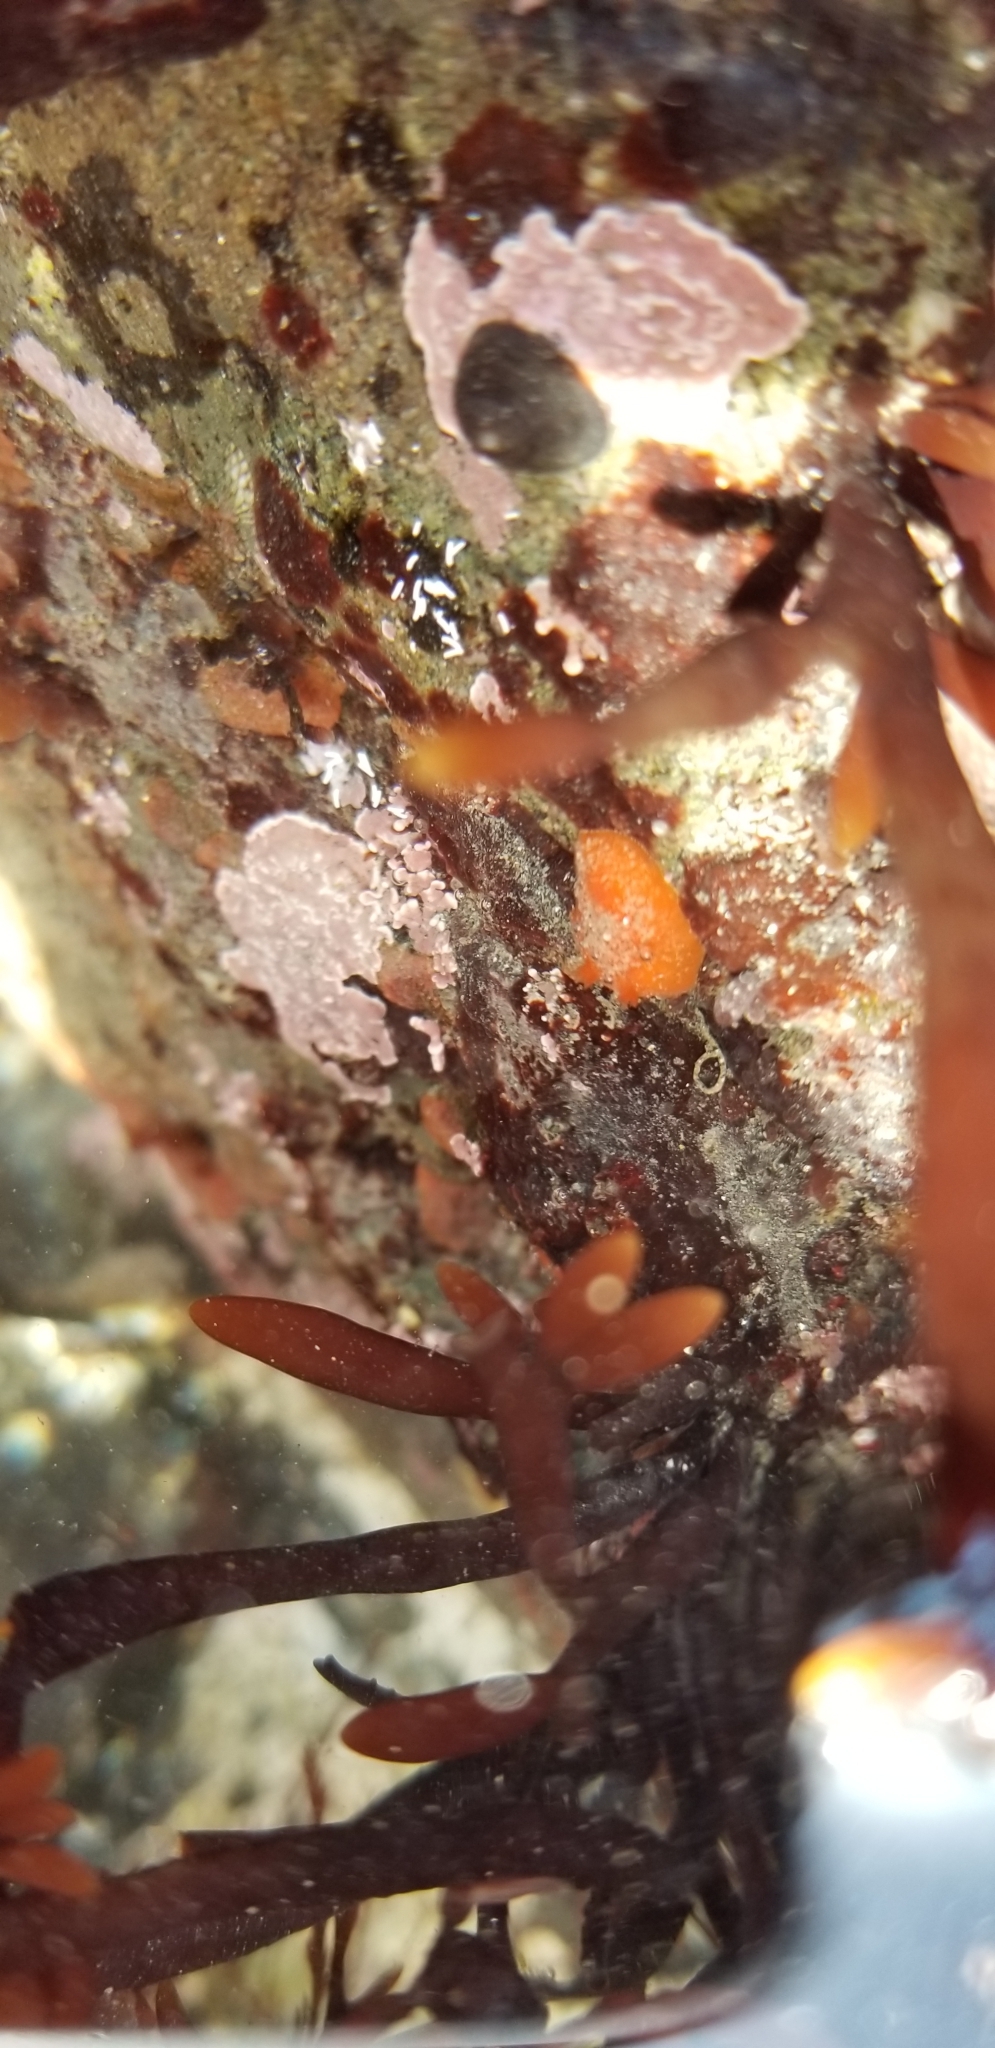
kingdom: Animalia
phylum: Mollusca
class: Gastropoda
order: Nudibranchia
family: Discodorididae
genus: Rostanga
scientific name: Rostanga pulchra
